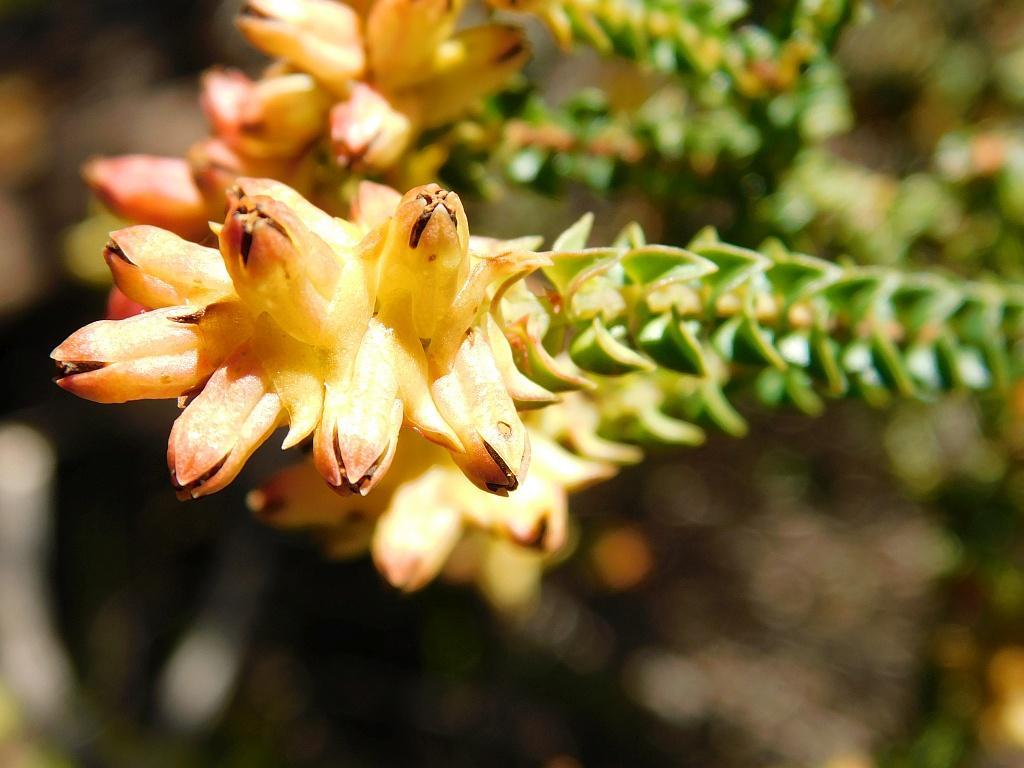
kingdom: Plantae
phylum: Tracheophyta
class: Magnoliopsida
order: Myrtales
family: Penaeaceae
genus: Penaea
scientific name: Penaea mucronata
